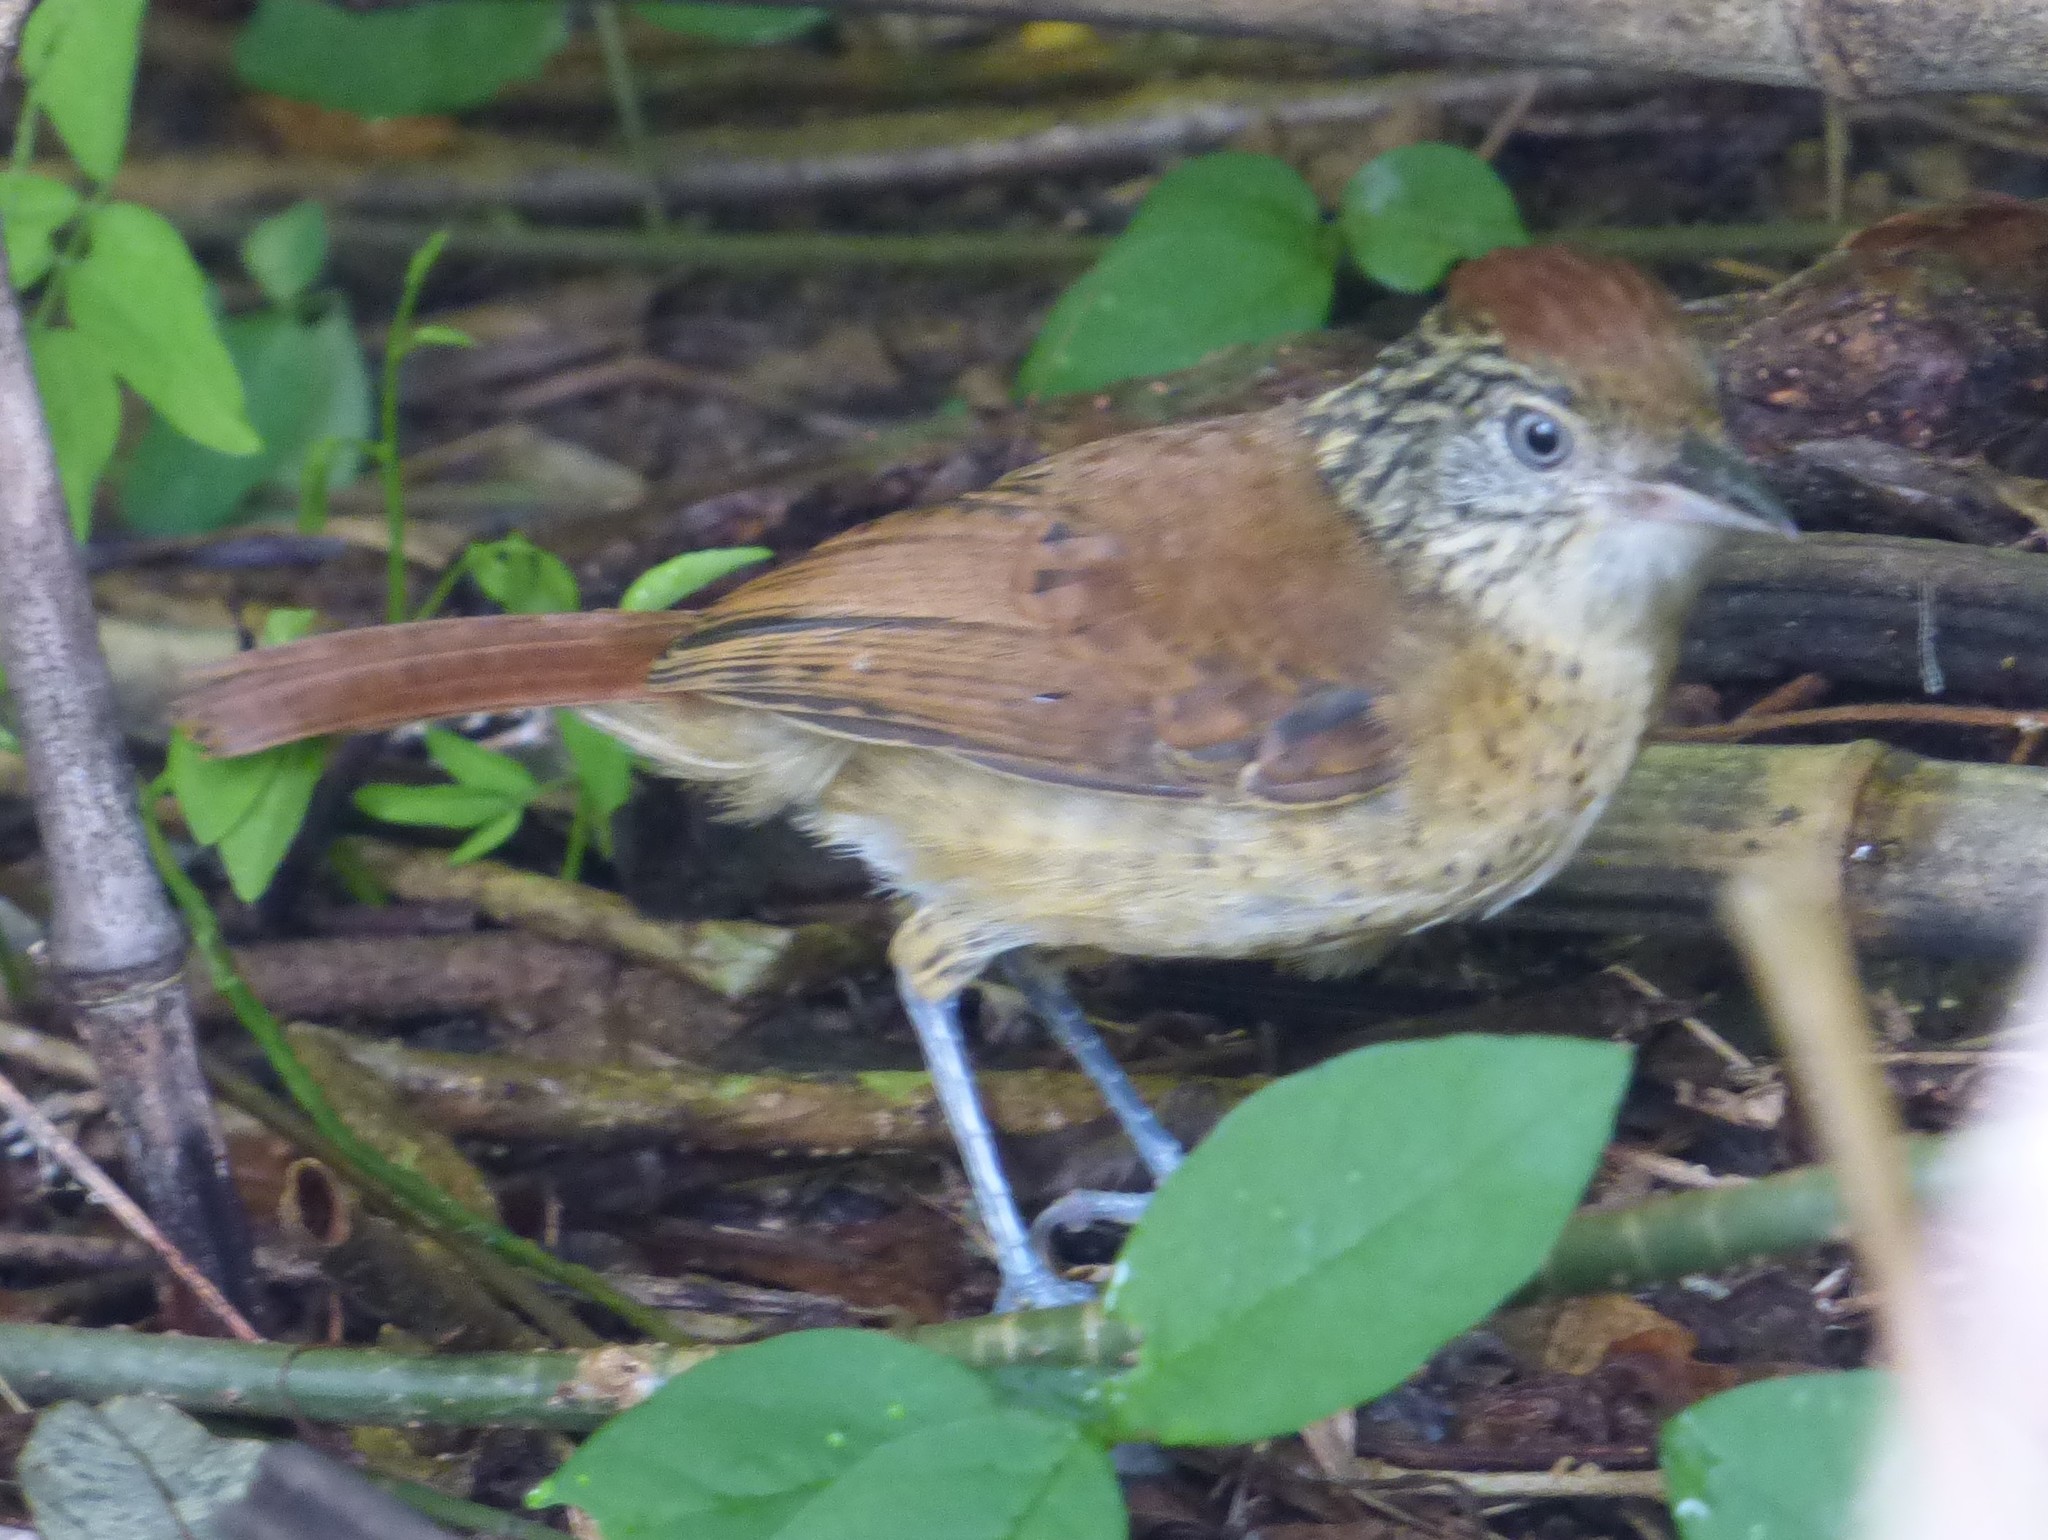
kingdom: Animalia
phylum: Chordata
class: Aves
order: Passeriformes
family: Thamnophilidae
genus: Thamnophilus
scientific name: Thamnophilus doliatus
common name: Barred antshrike
